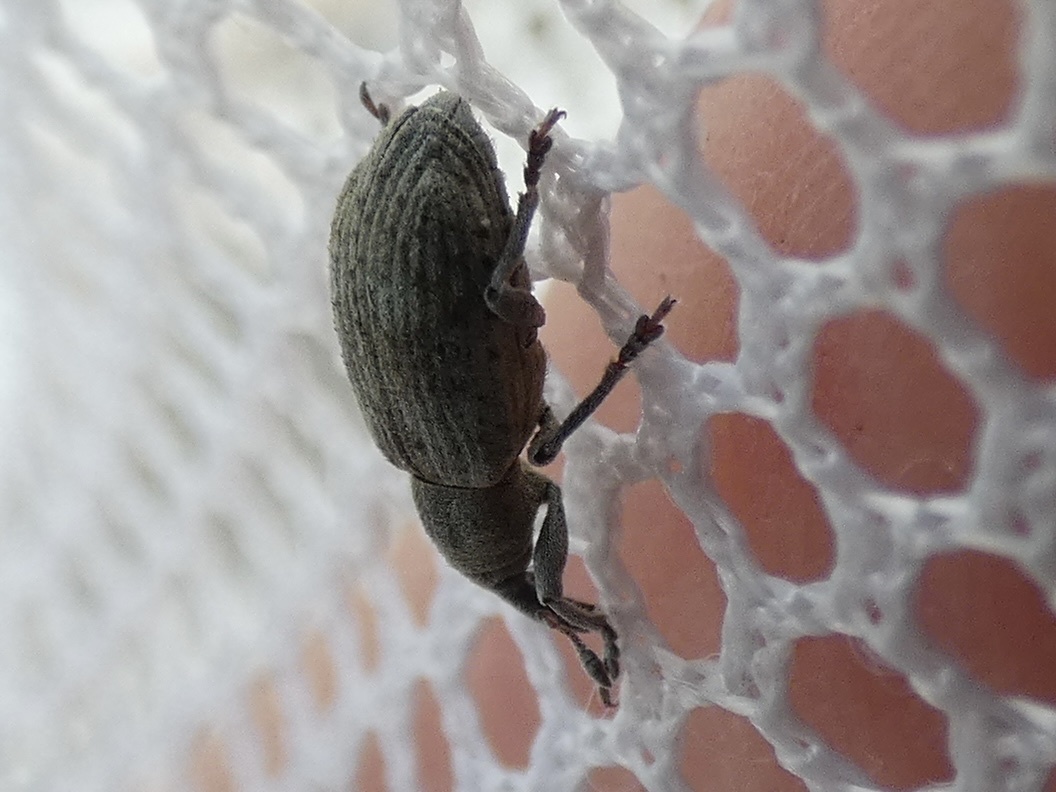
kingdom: Animalia
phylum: Arthropoda
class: Insecta
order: Coleoptera
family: Curculionidae
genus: Hypera
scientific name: Hypera rumicis
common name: Weevil
